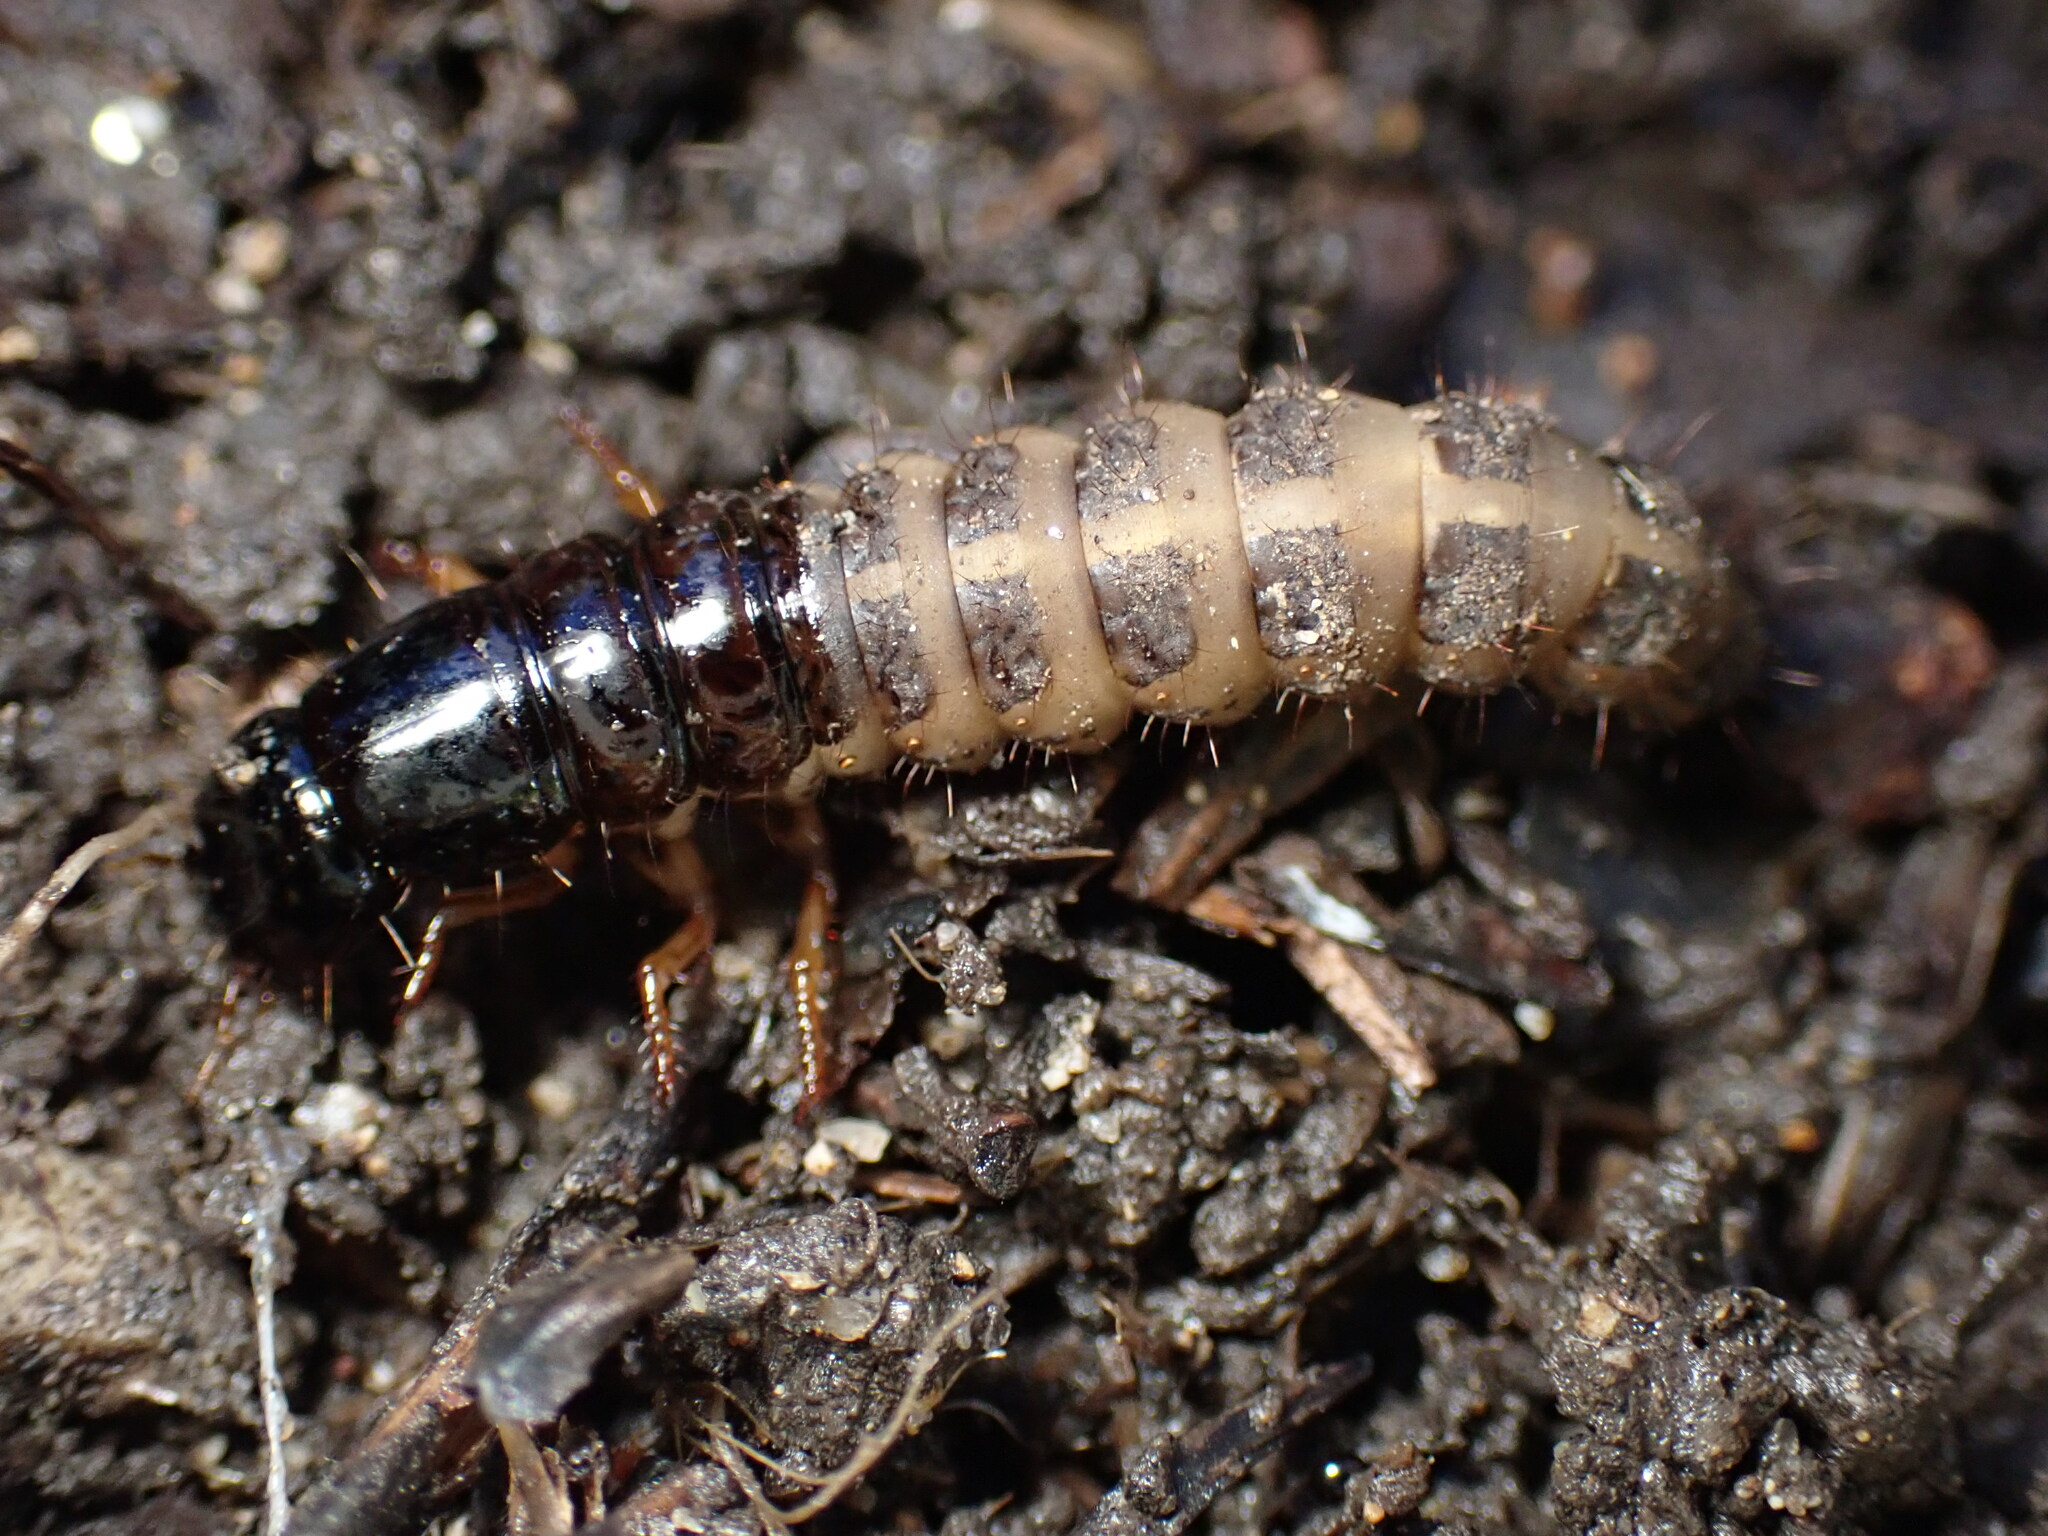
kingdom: Animalia
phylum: Arthropoda
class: Insecta
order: Coleoptera
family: Staphylinidae
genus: Ocypus
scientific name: Ocypus olens
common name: Devil's coach-horse
